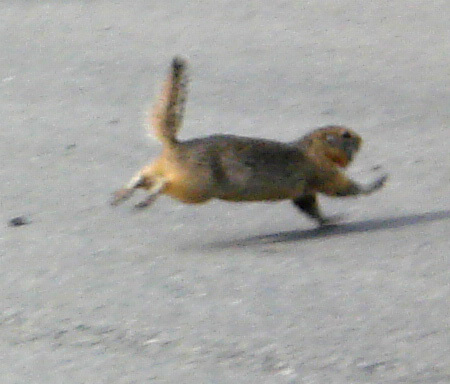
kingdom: Animalia
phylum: Chordata
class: Mammalia
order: Rodentia
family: Sciuridae
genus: Urocitellus
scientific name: Urocitellus parryii
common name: Arctic ground squirrel
